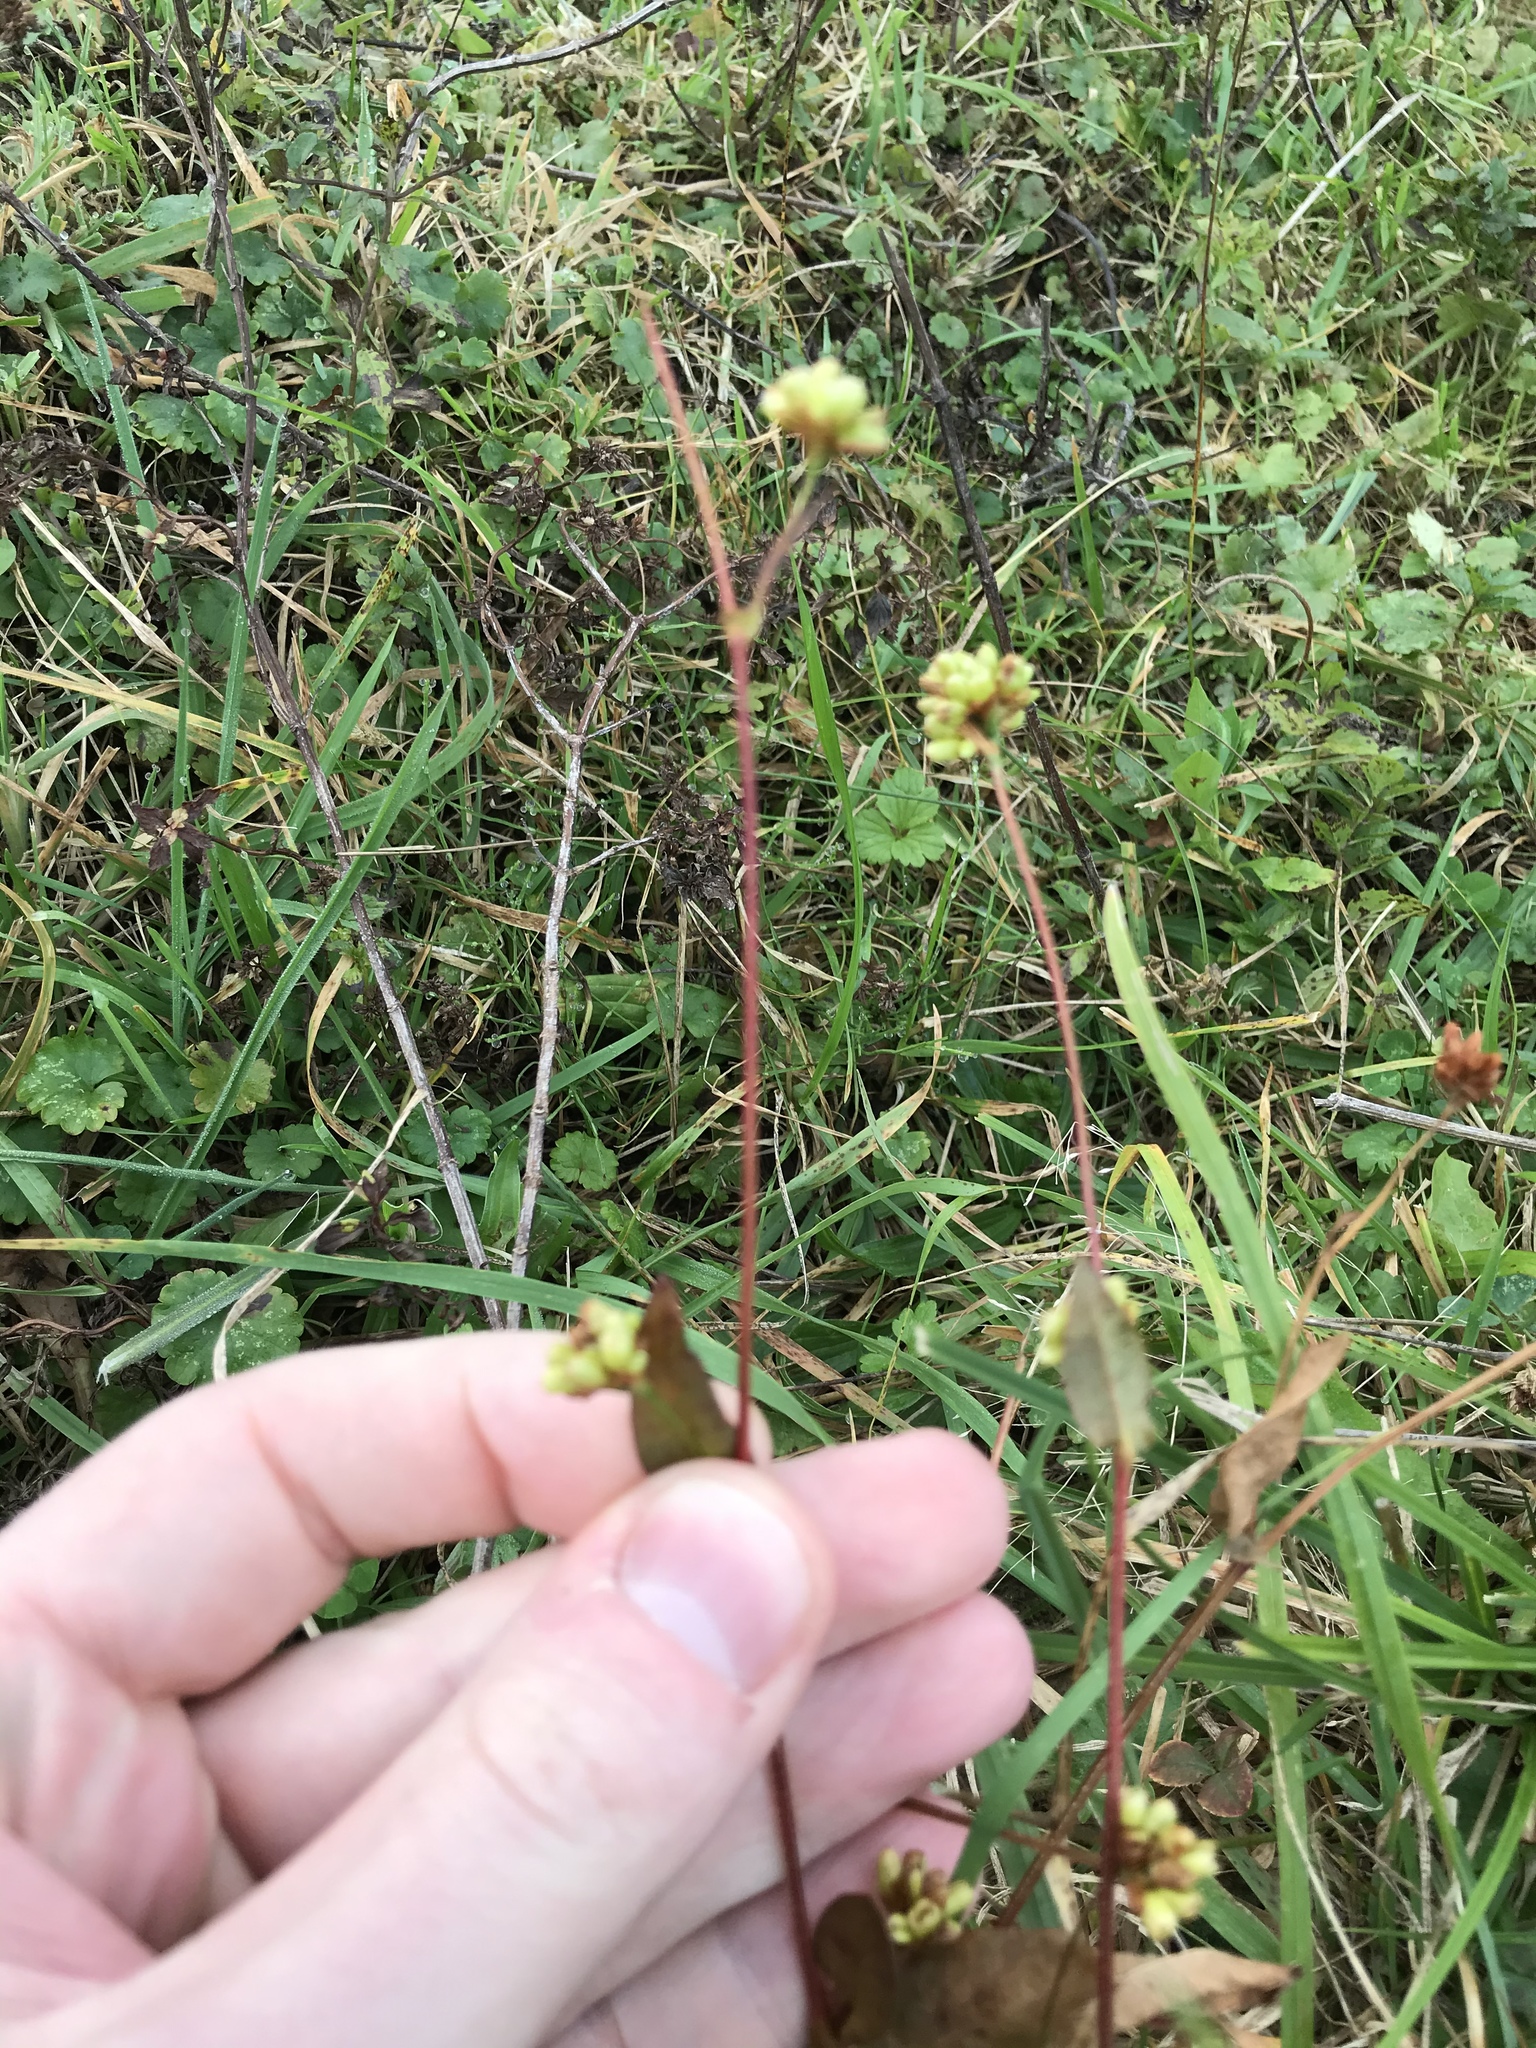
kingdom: Plantae
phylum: Tracheophyta
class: Magnoliopsida
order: Caryophyllales
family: Polygonaceae
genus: Persicaria
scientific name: Persicaria sagittata
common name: American tearthumb
